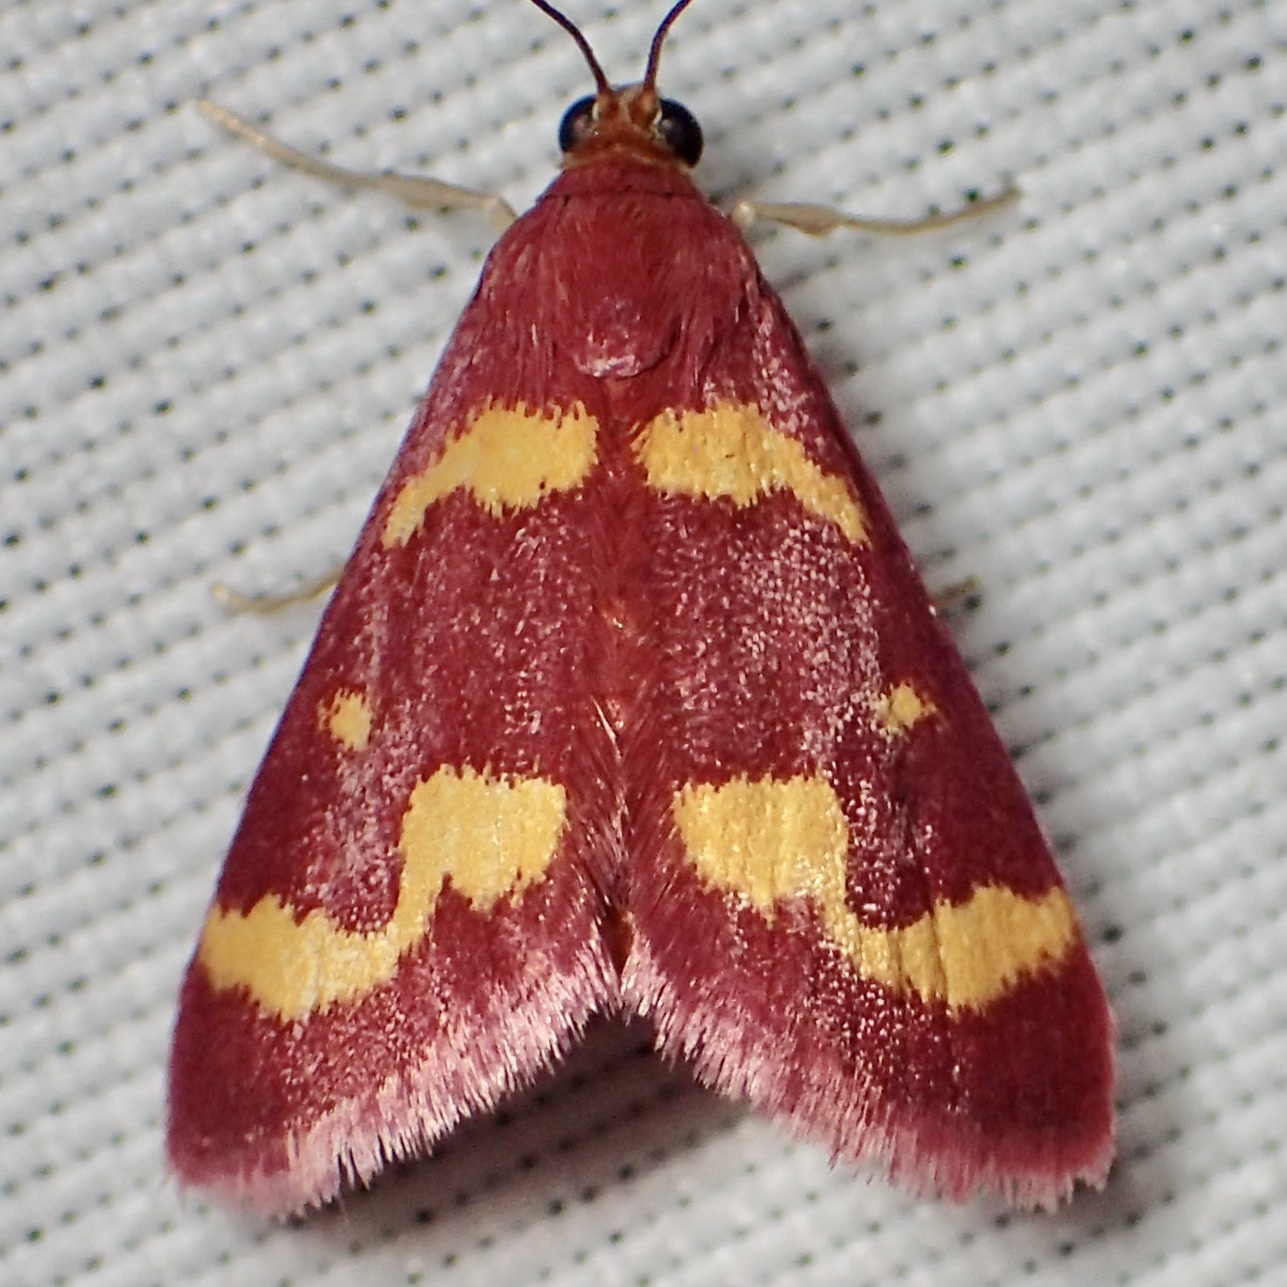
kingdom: Animalia
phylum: Arthropoda
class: Insecta
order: Lepidoptera
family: Crambidae
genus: Pyrausta
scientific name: Pyrausta tyralis
